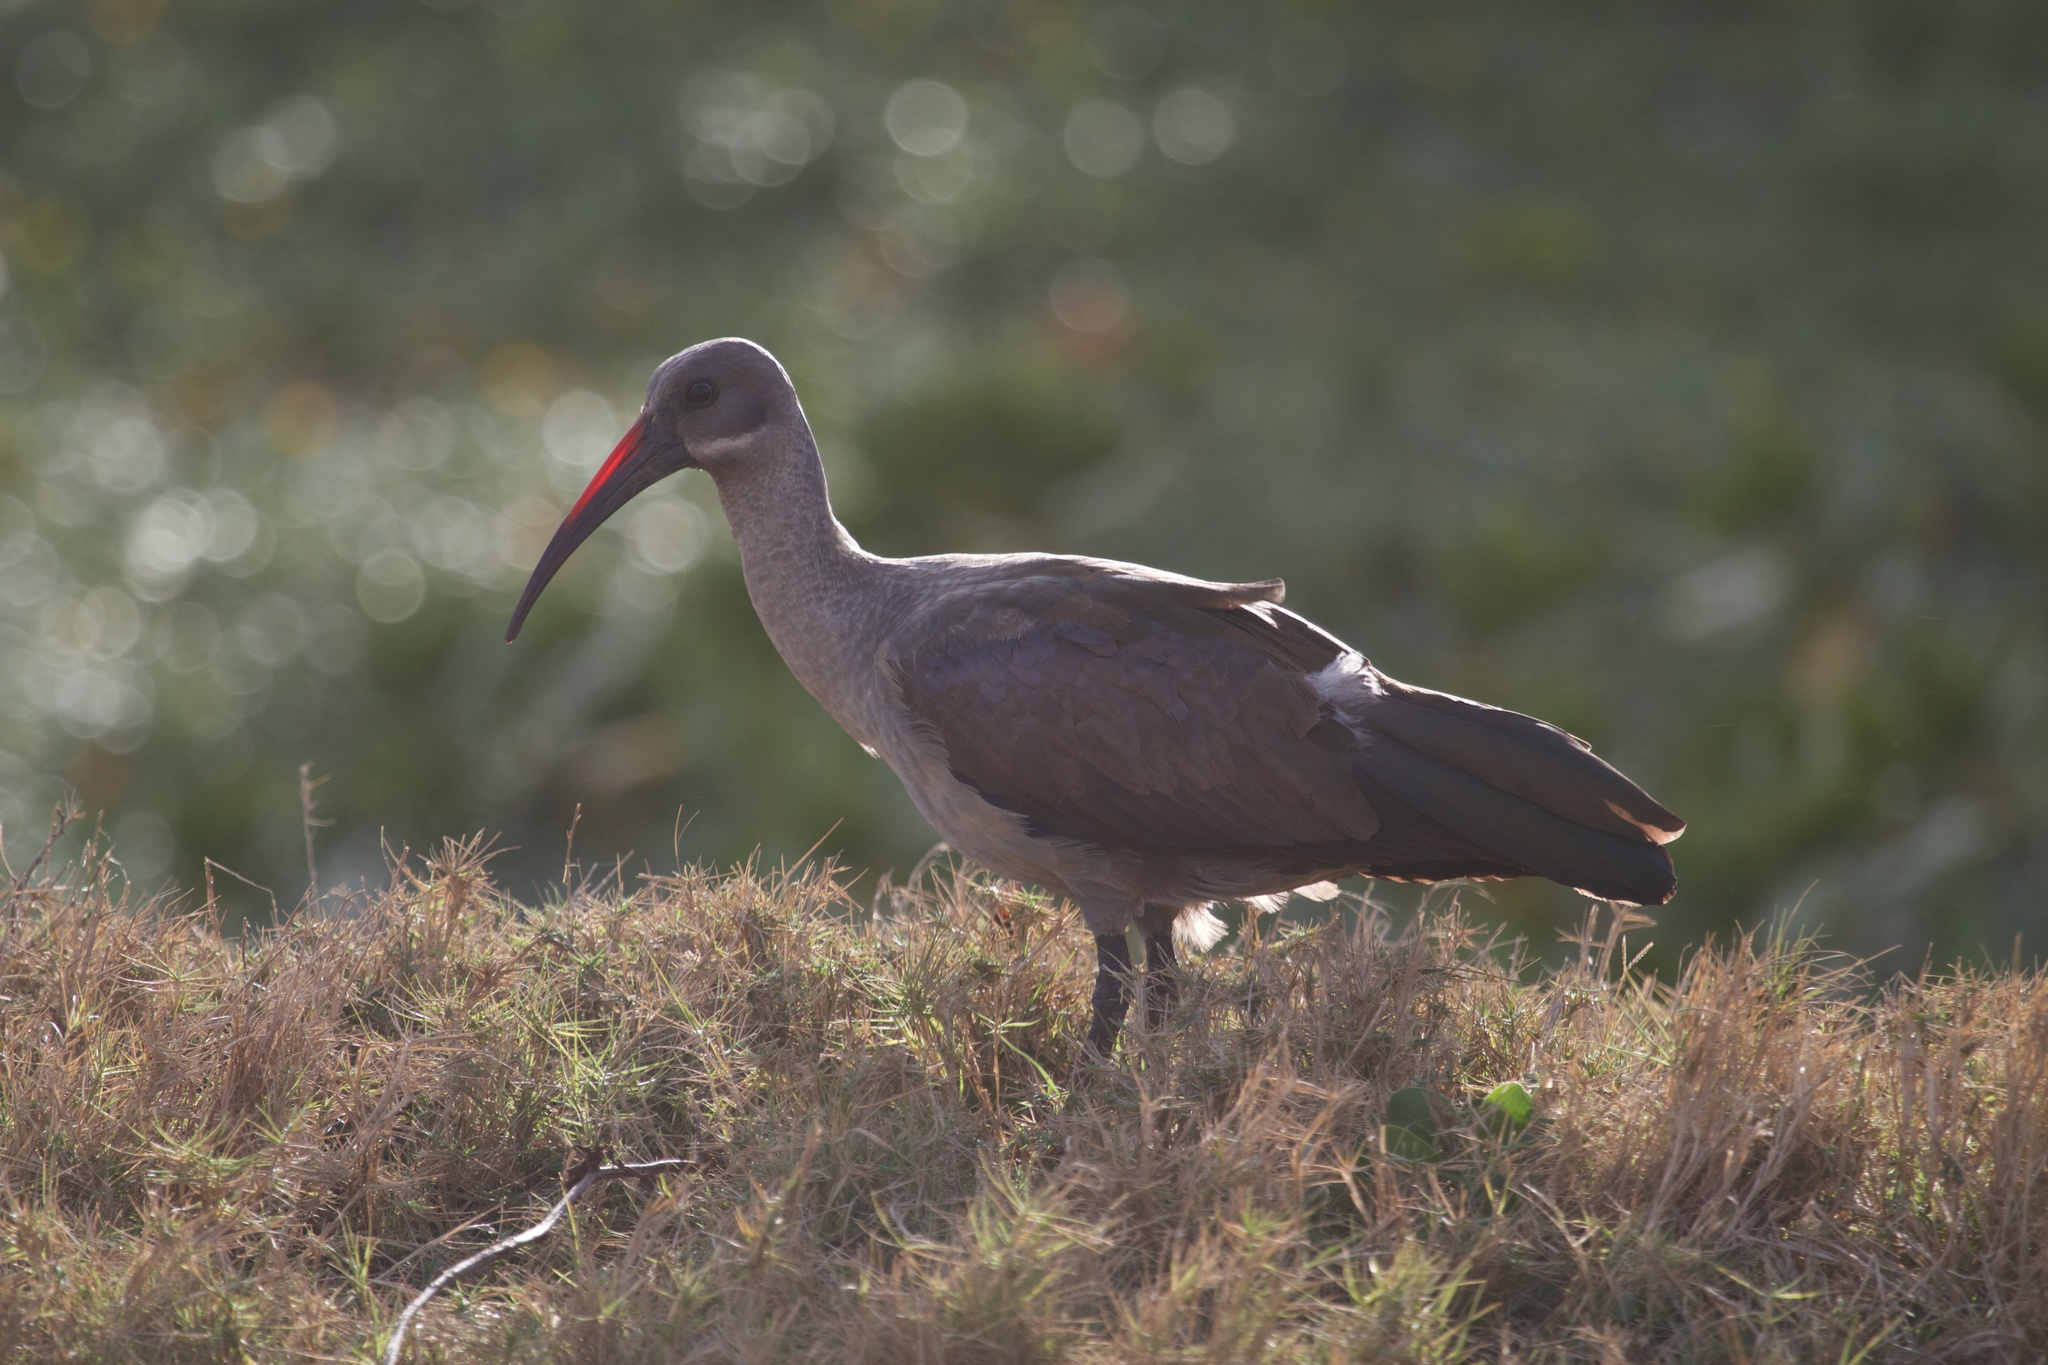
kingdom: Animalia
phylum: Chordata
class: Aves
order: Pelecaniformes
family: Threskiornithidae
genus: Bostrychia
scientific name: Bostrychia hagedash
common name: Hadada ibis
